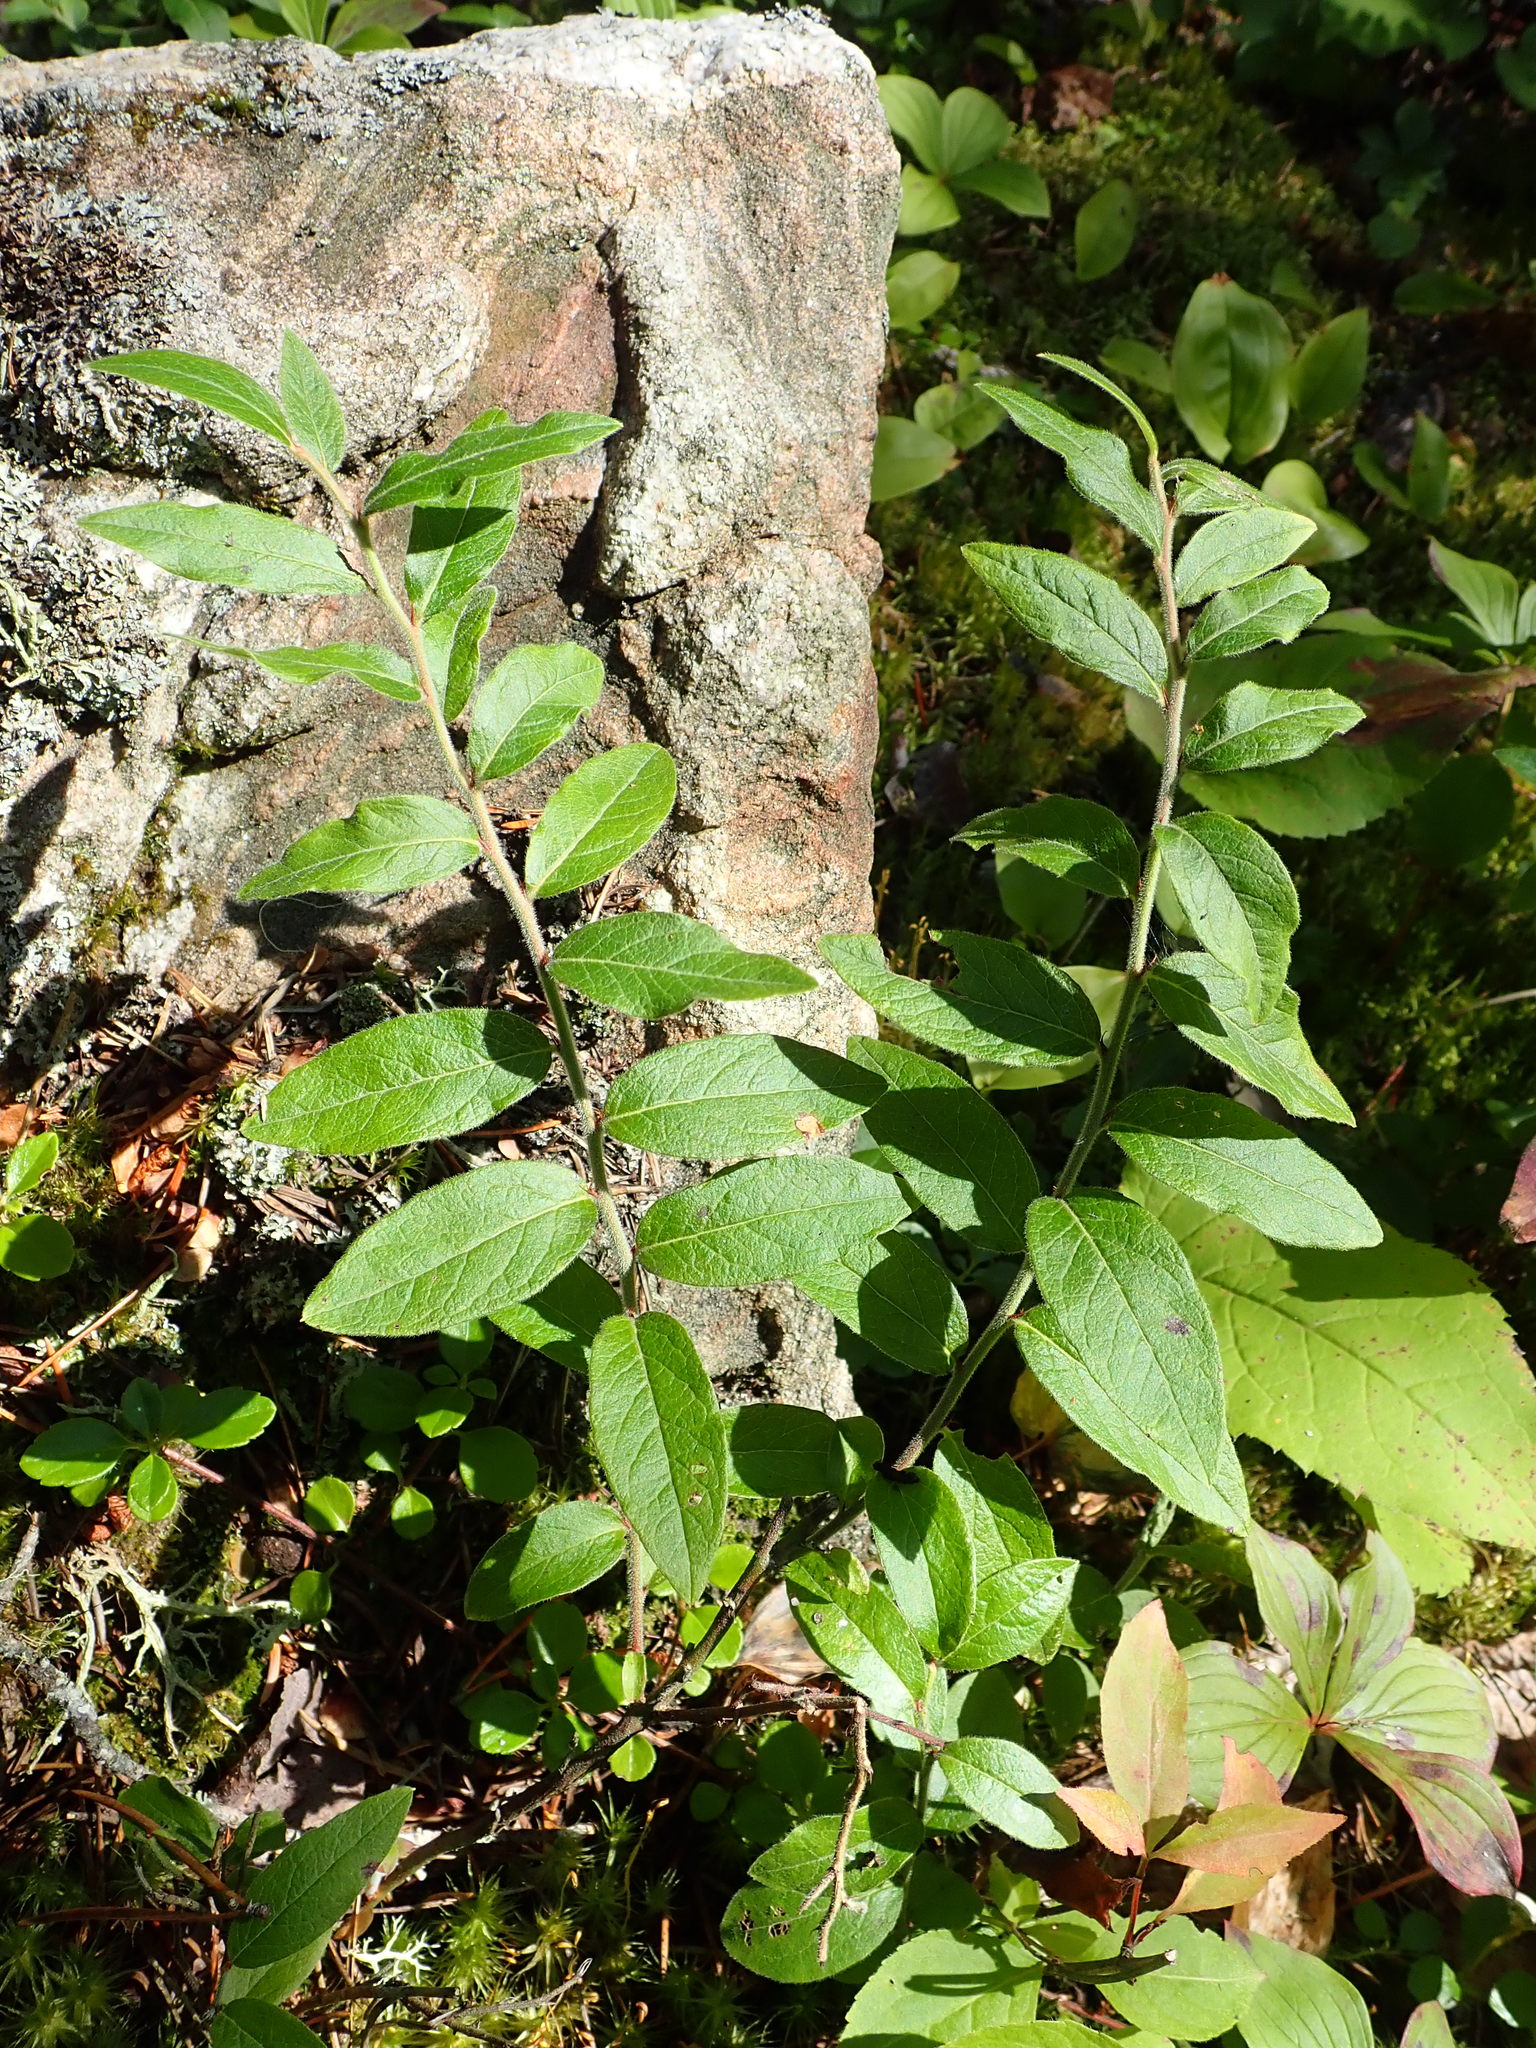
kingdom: Plantae
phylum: Tracheophyta
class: Magnoliopsida
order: Ericales
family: Ericaceae
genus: Vaccinium
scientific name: Vaccinium myrtilloides
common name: Canada blueberry
